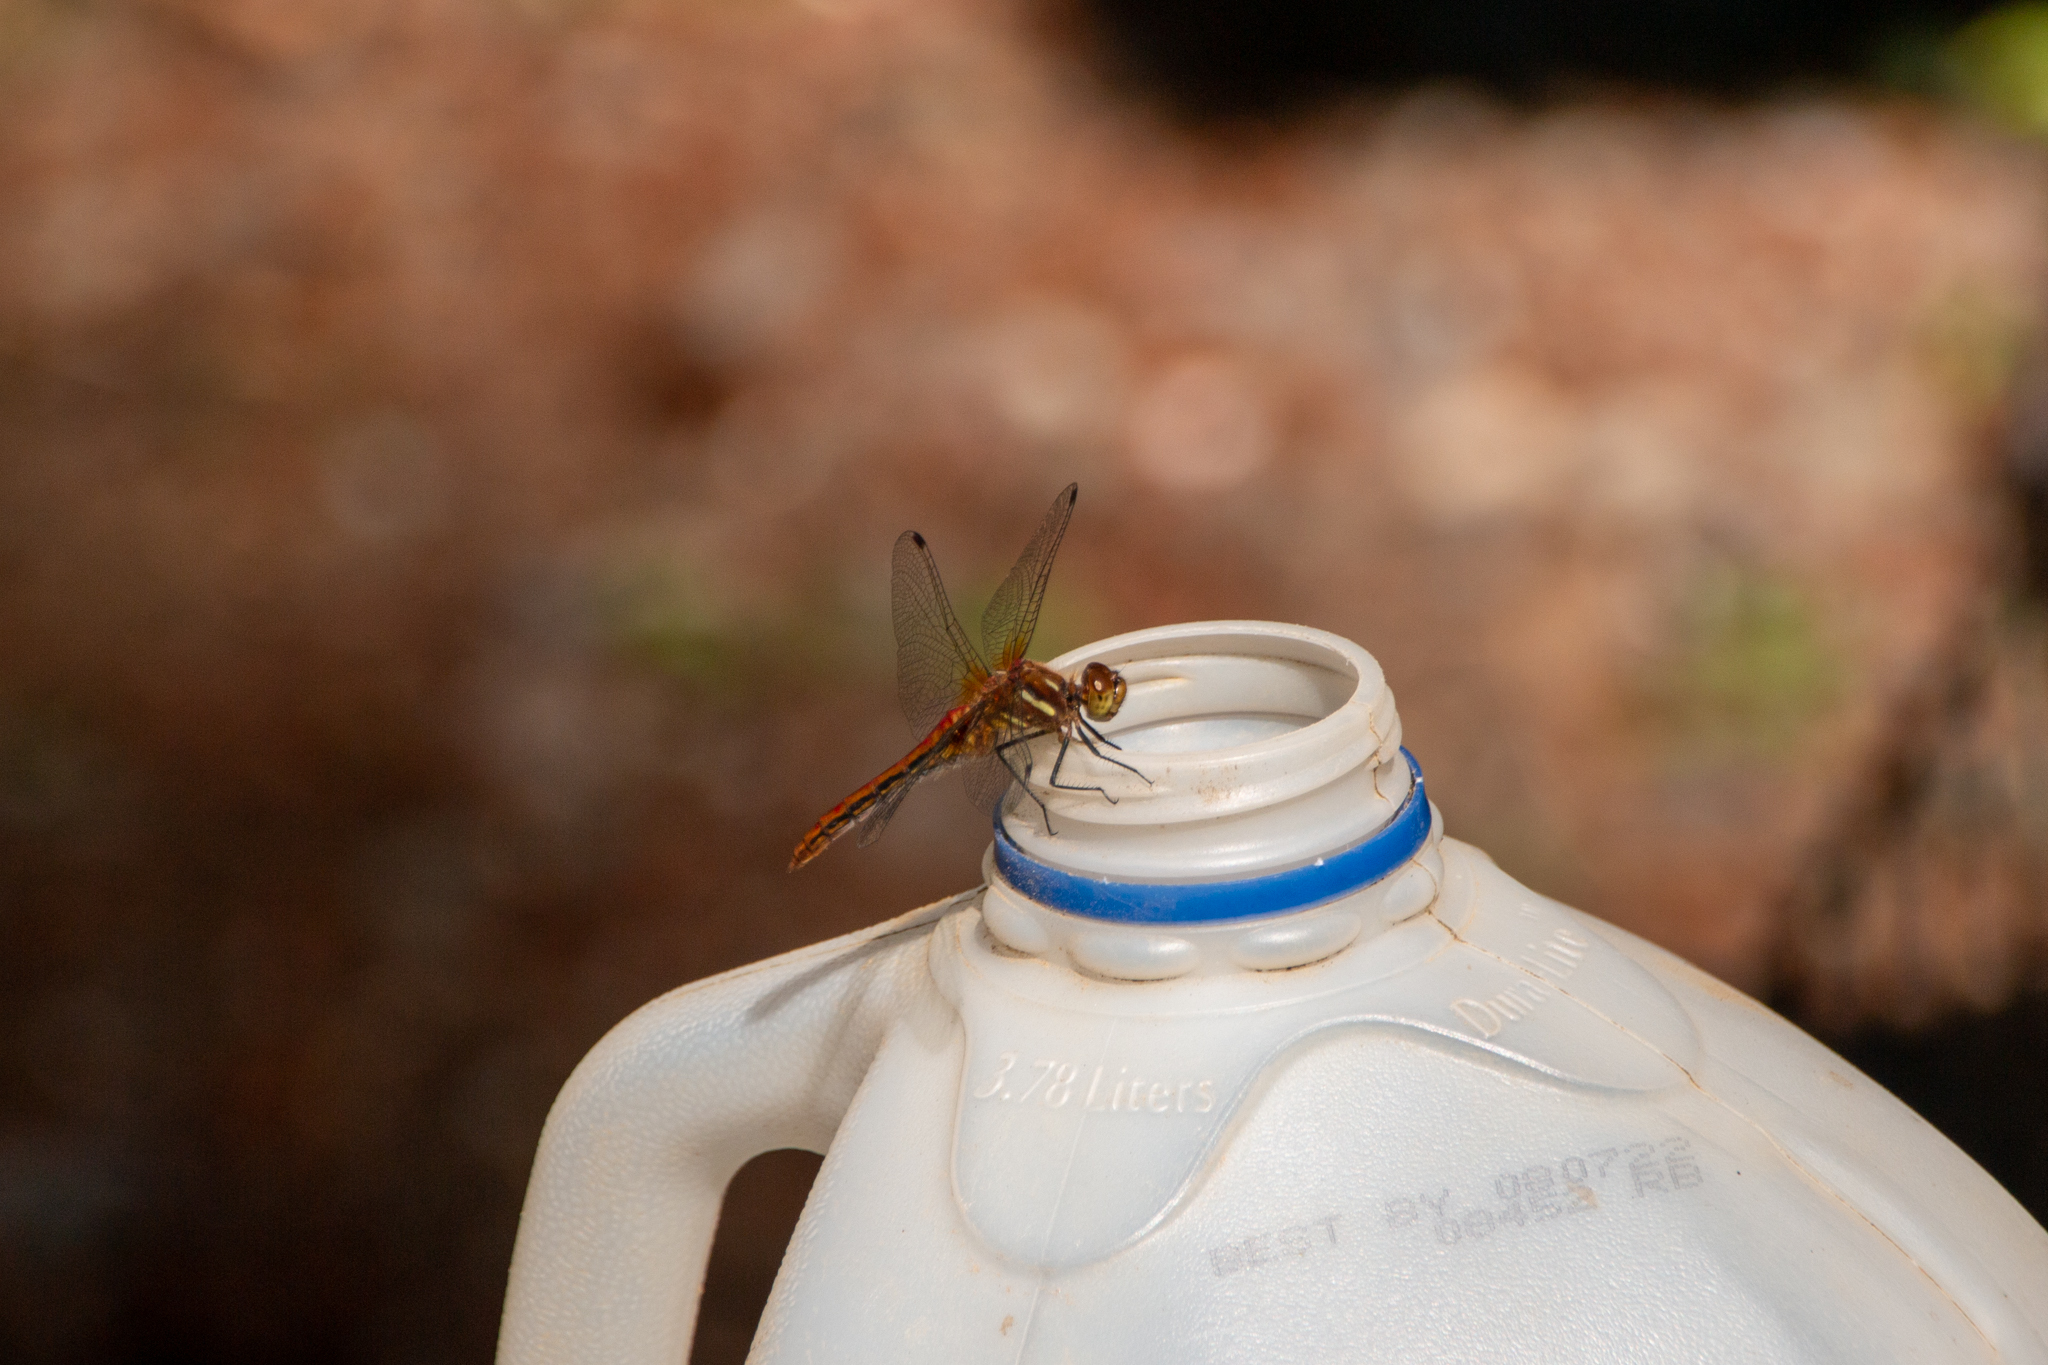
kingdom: Animalia
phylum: Arthropoda
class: Insecta
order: Odonata
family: Libellulidae
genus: Sympetrum
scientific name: Sympetrum pallipes
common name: Striped meadowhawk
